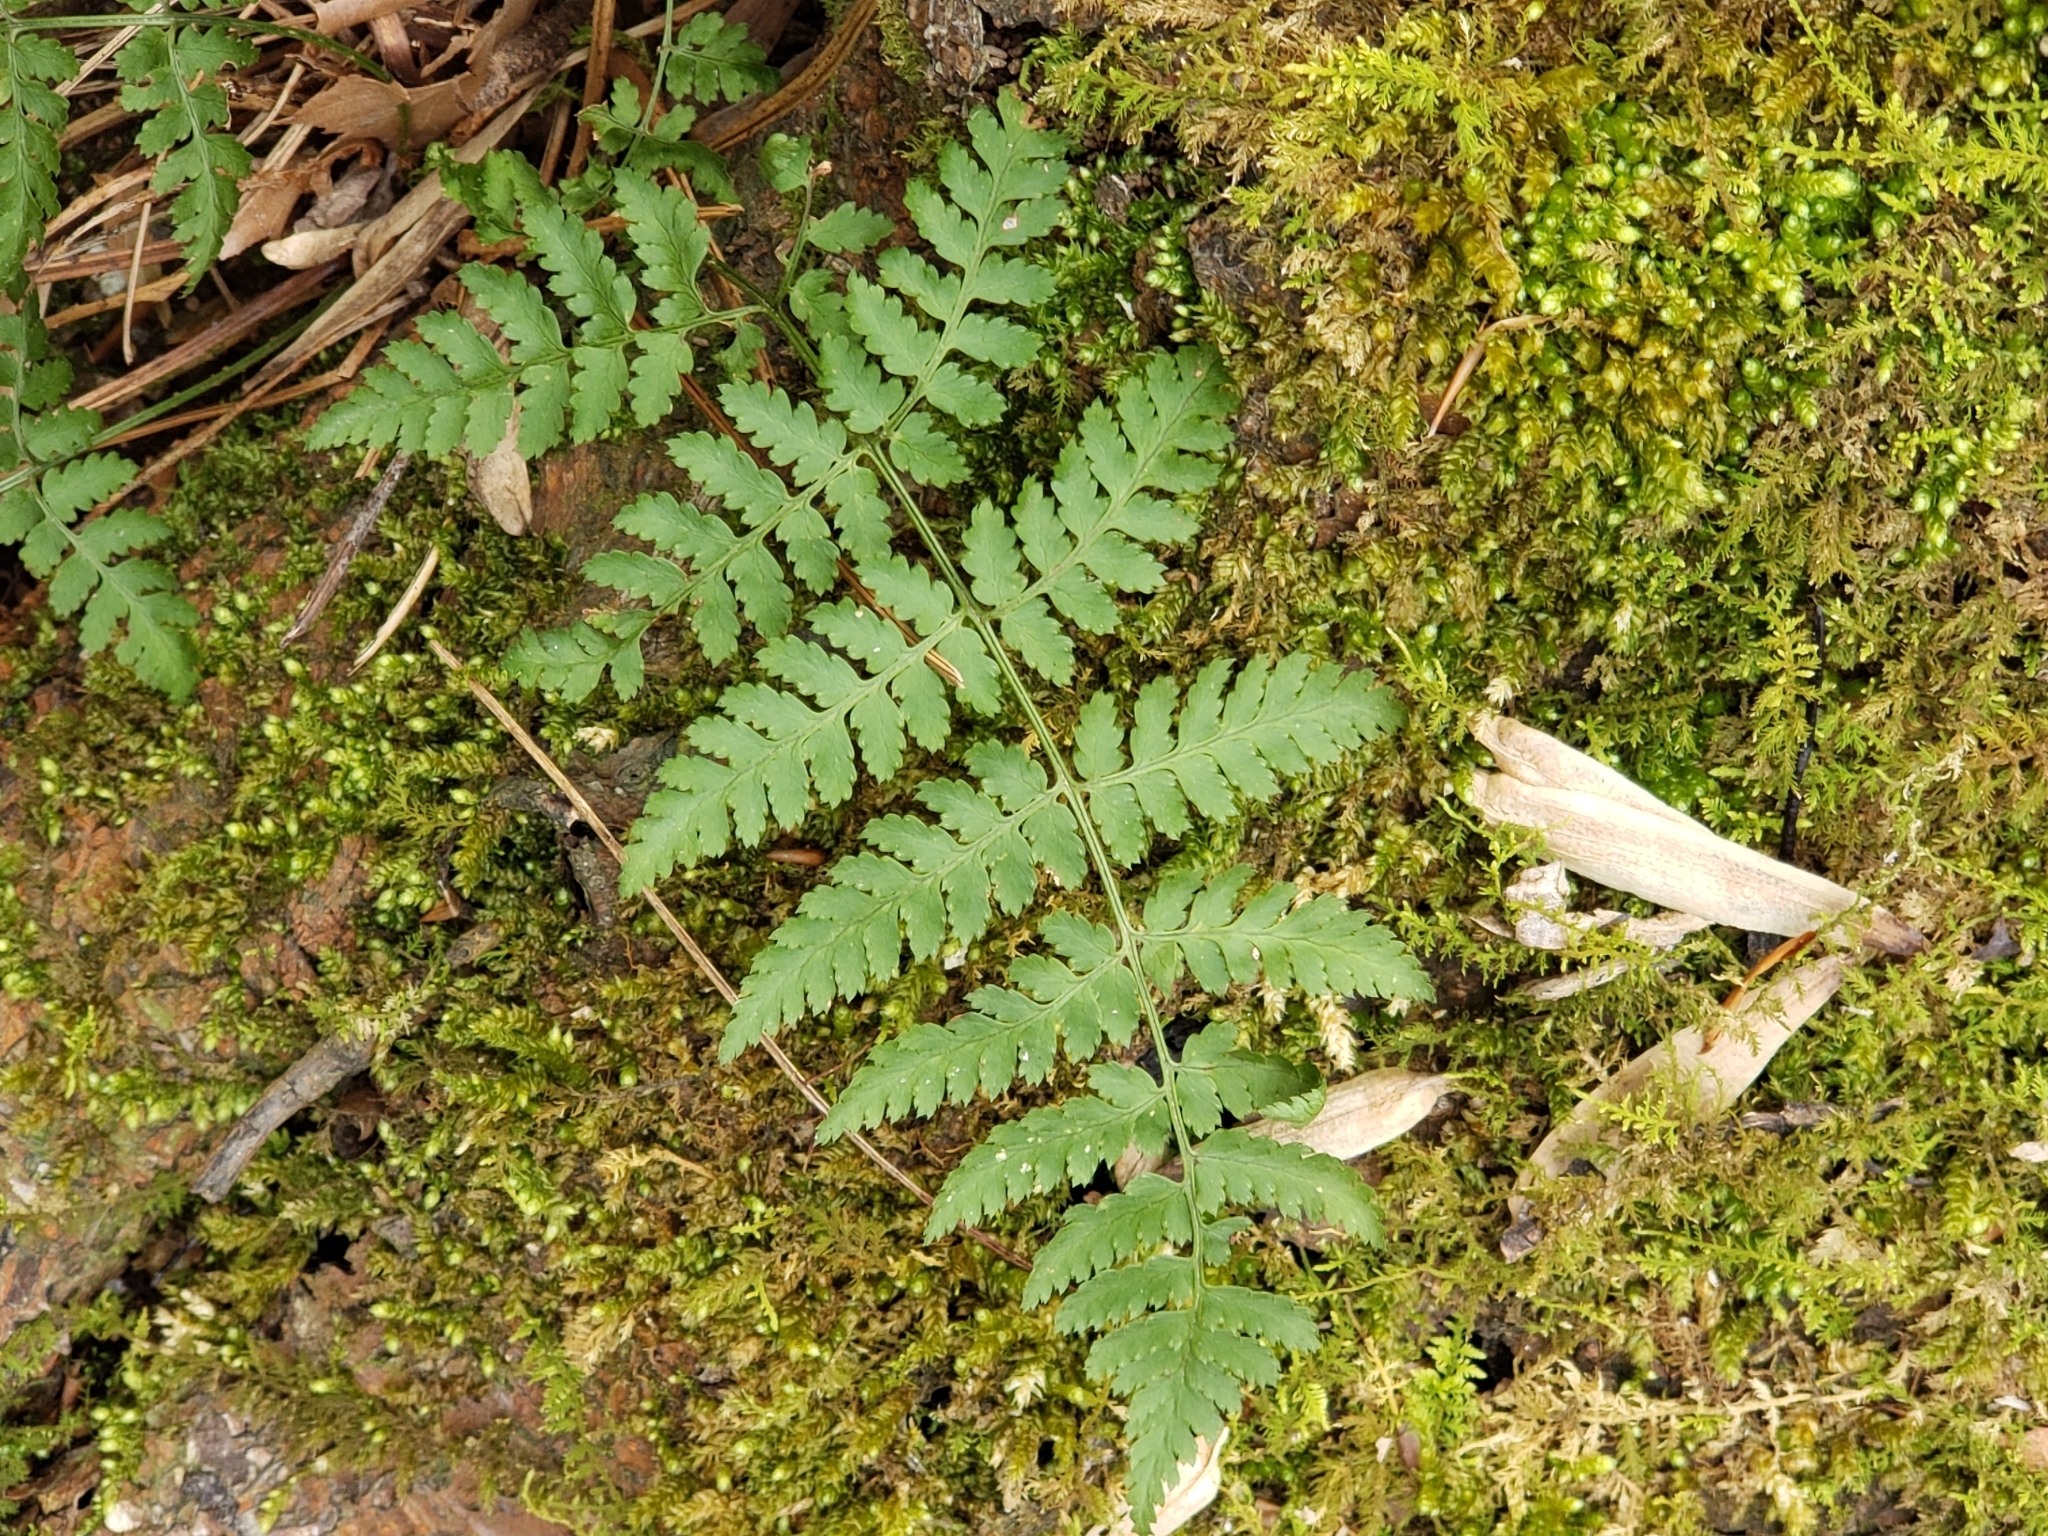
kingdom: Plantae
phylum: Tracheophyta
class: Polypodiopsida
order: Polypodiales
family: Dryopteridaceae
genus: Dryopteris
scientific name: Dryopteris intermedia
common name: Evergreen wood fern
